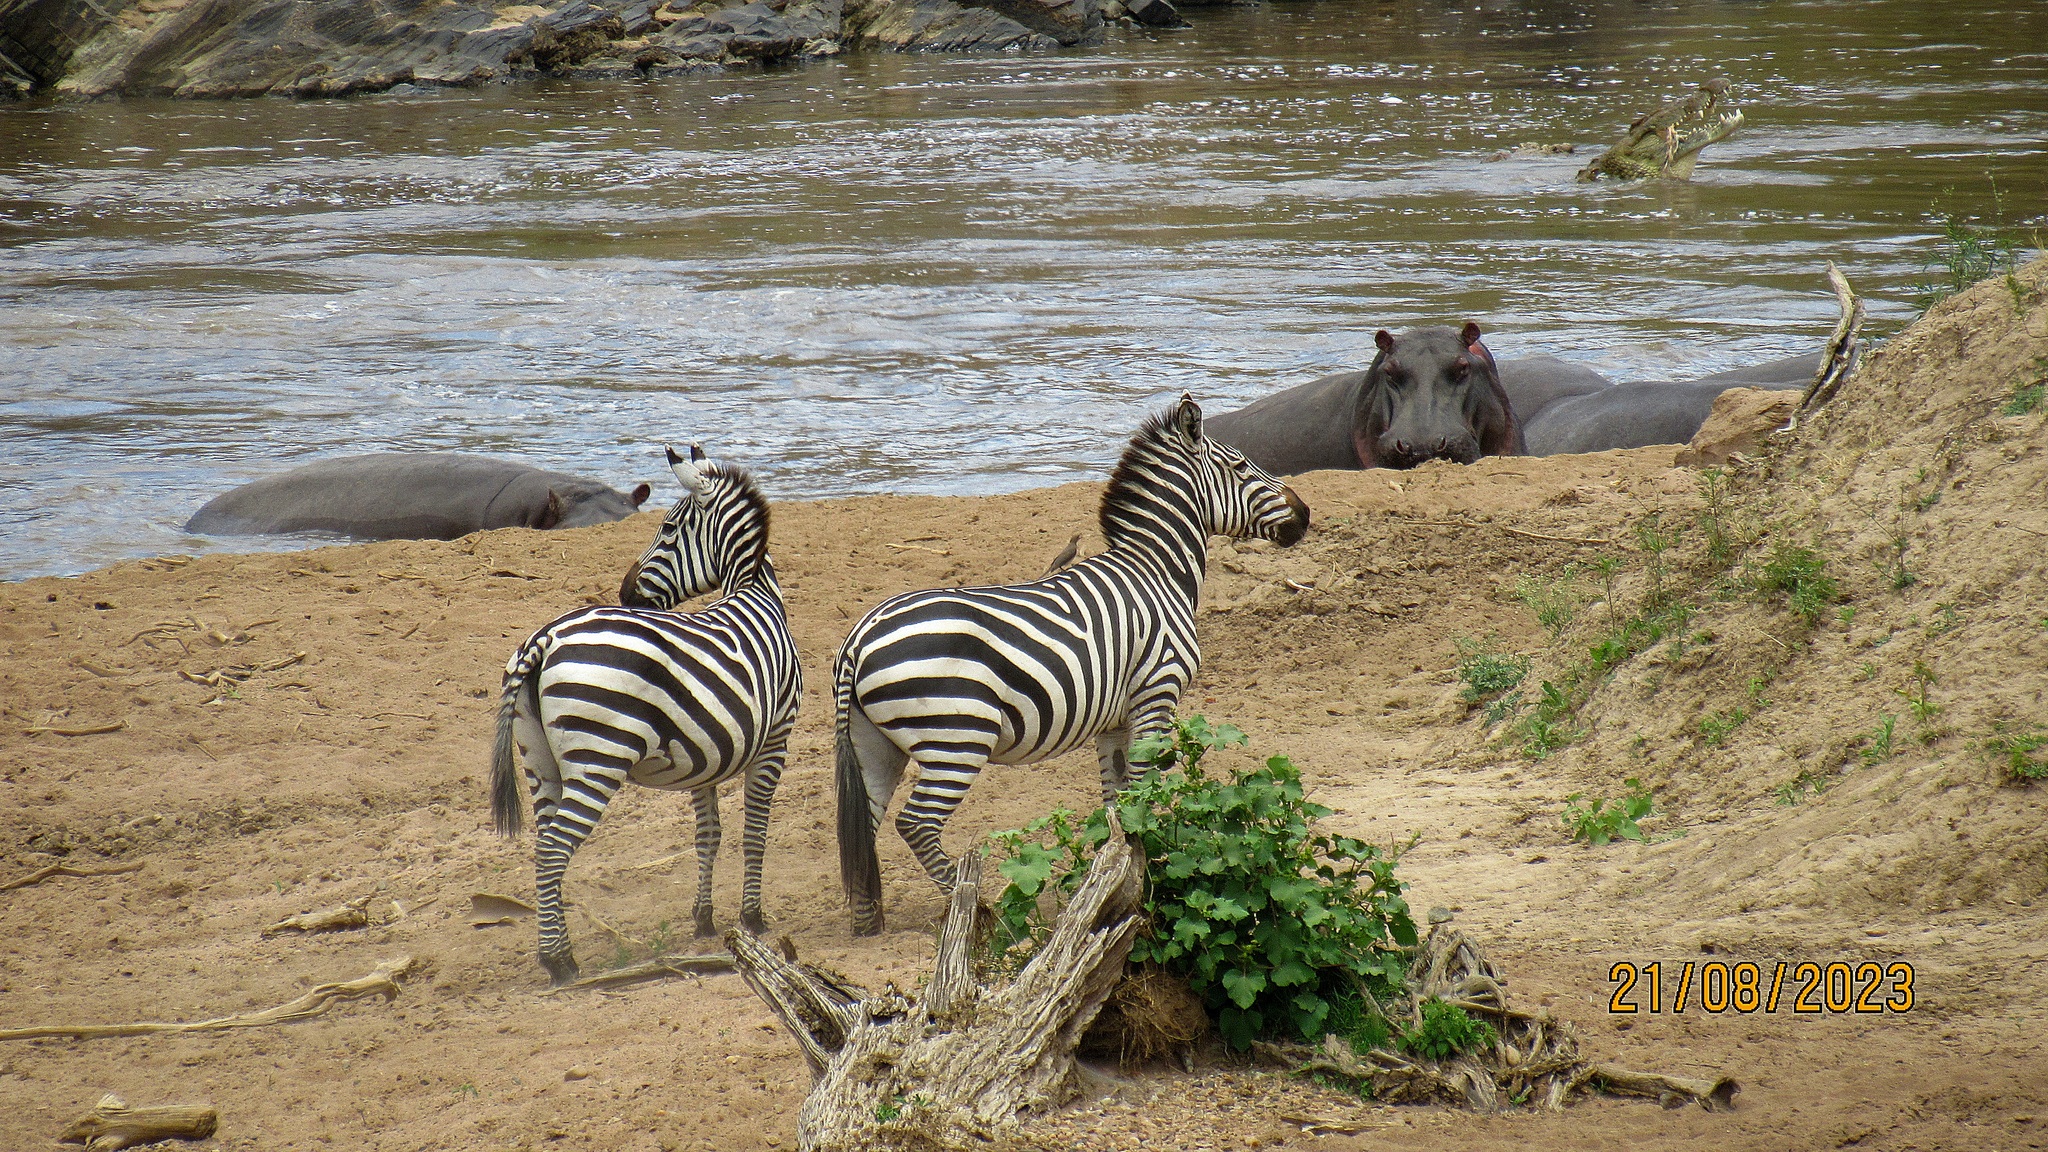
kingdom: Animalia
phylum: Chordata
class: Mammalia
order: Artiodactyla
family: Hippopotamidae
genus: Hippopotamus
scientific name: Hippopotamus amphibius
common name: Common hippopotamus
